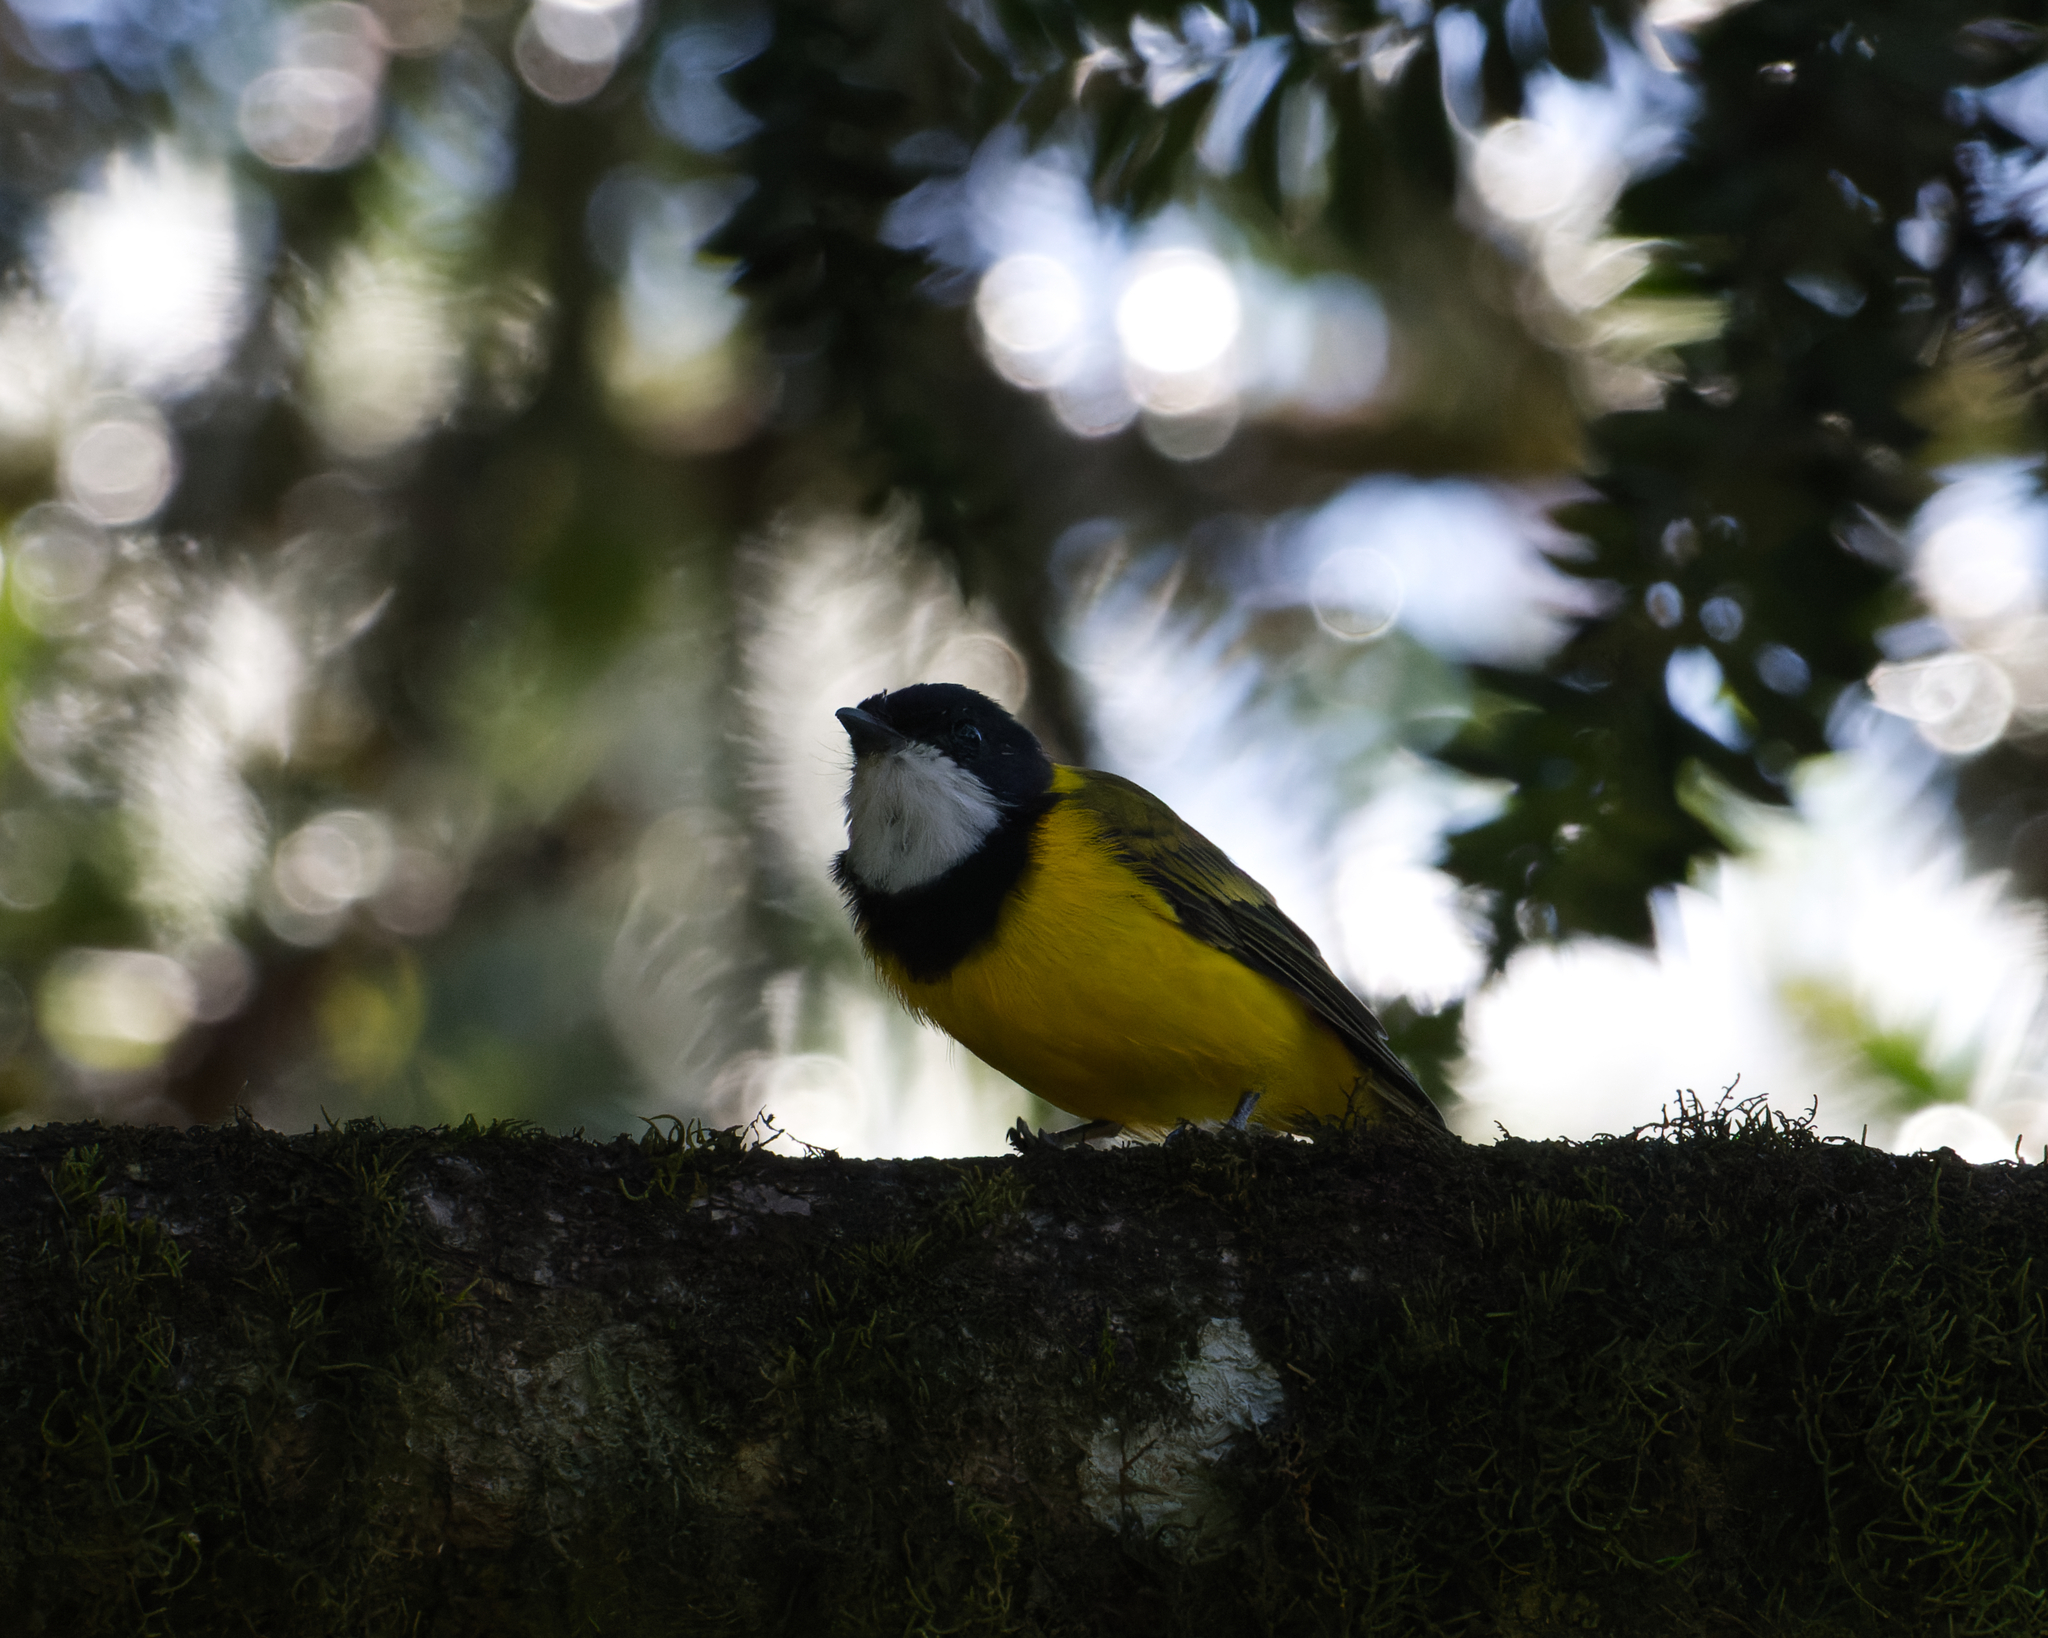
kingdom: Animalia
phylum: Chordata
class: Aves
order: Passeriformes
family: Pachycephalidae
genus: Pachycephala
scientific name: Pachycephala pectoralis
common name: Australian golden whistler
